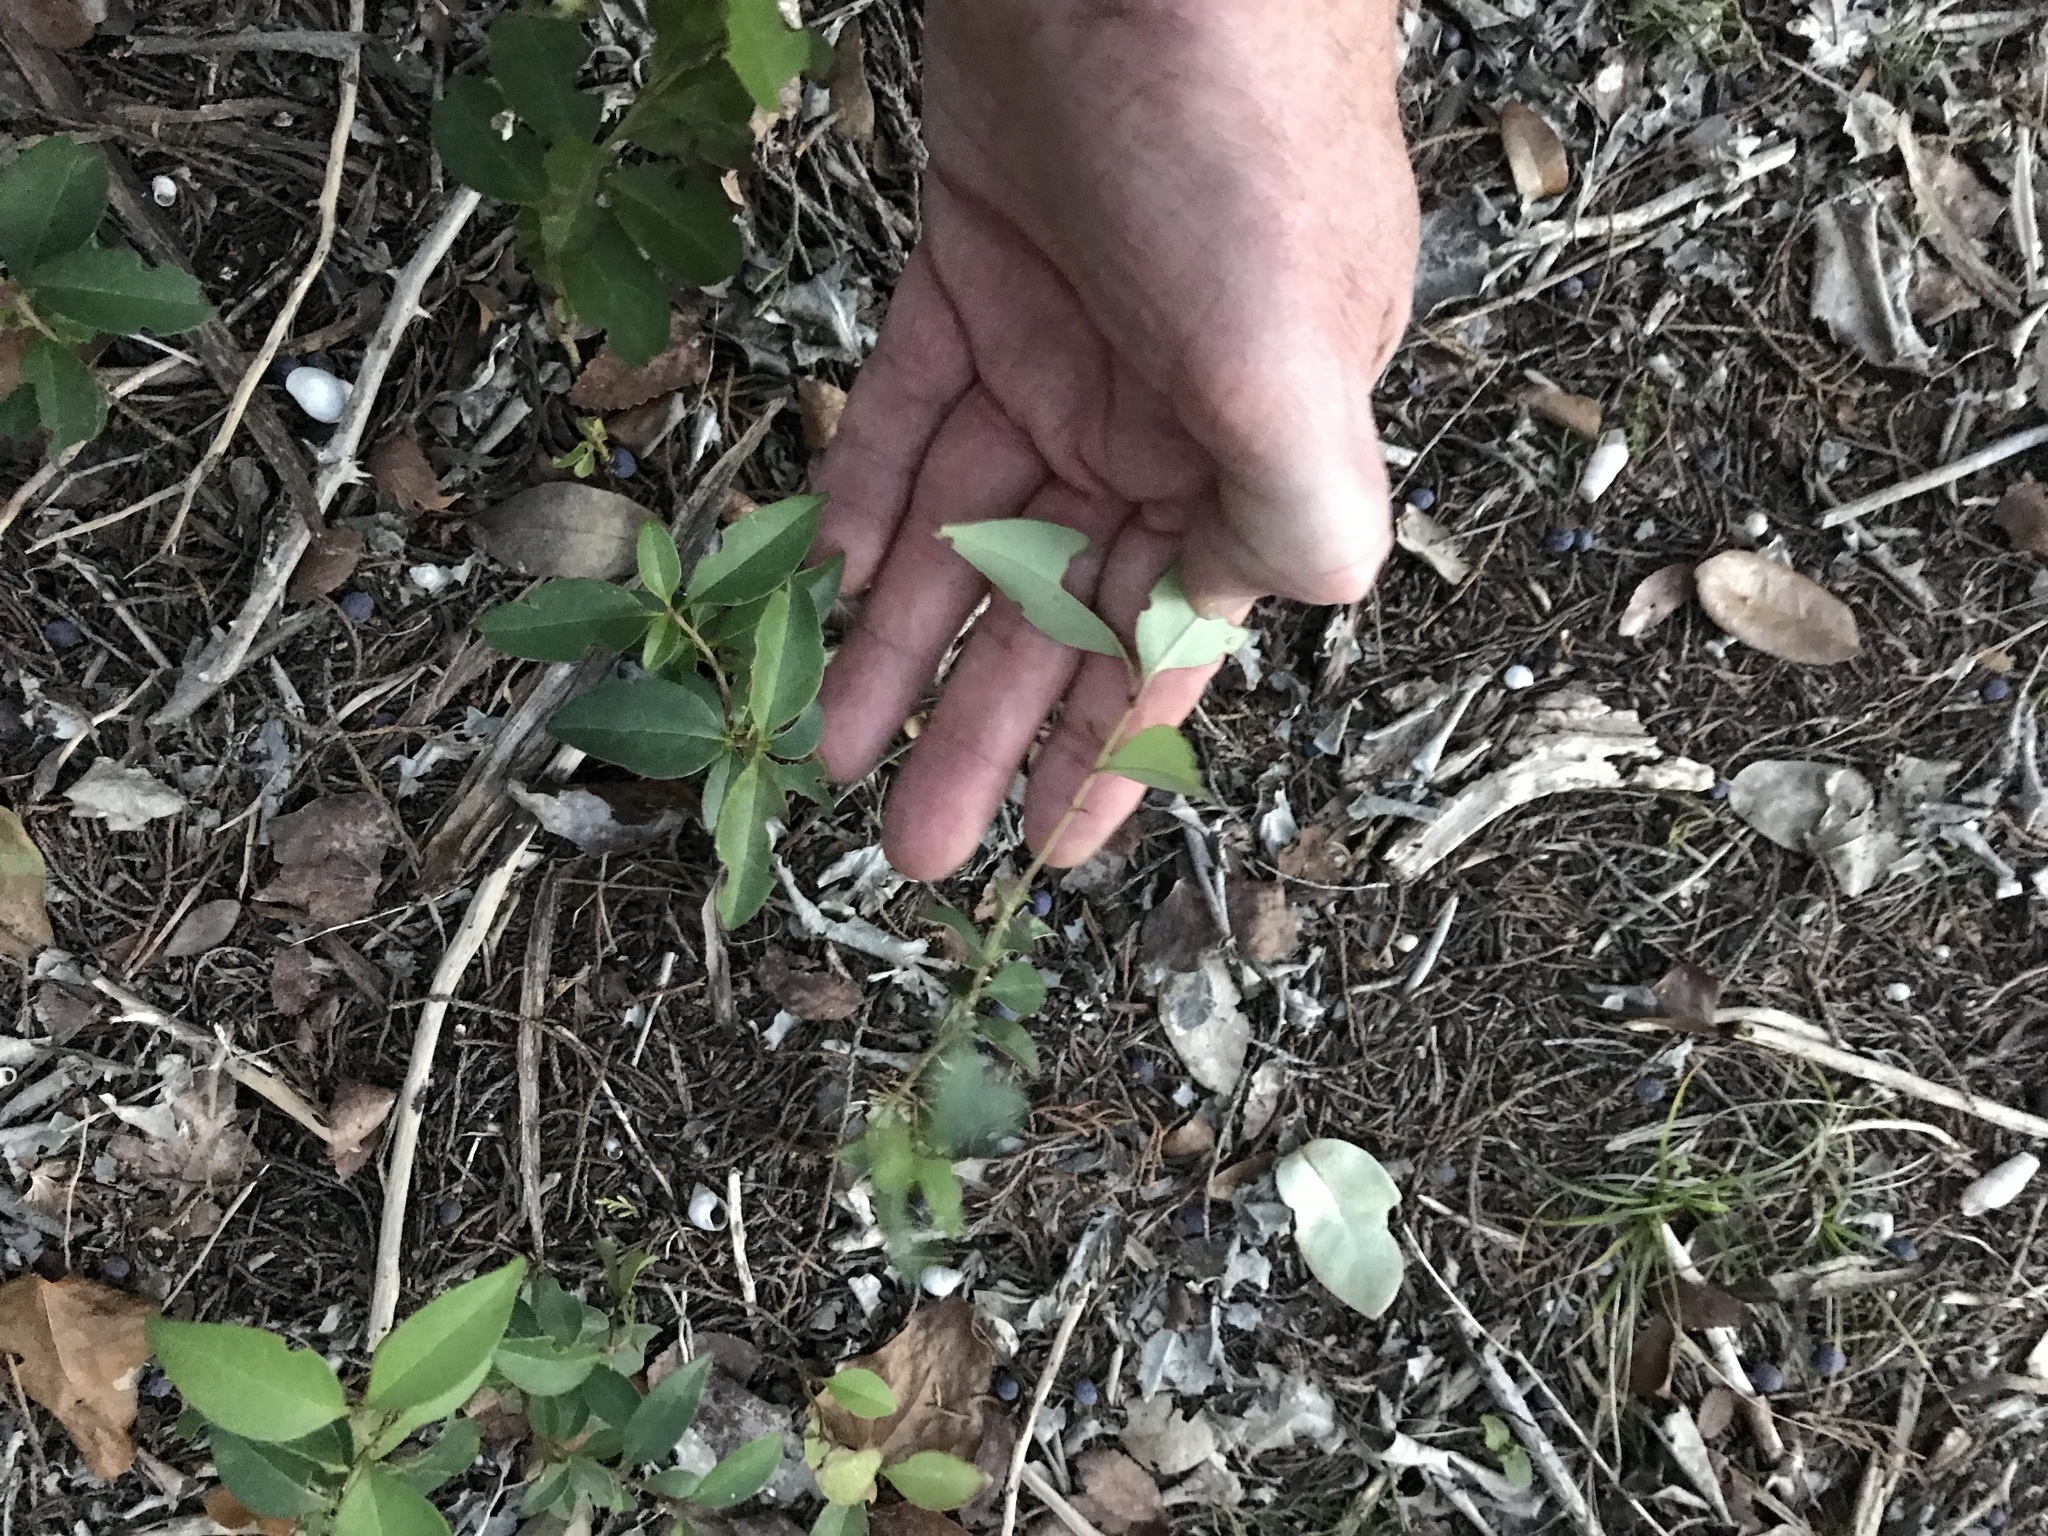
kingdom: Plantae
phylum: Tracheophyta
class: Magnoliopsida
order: Lamiales
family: Oleaceae
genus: Ligustrum
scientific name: Ligustrum lucidum
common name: Glossy privet
